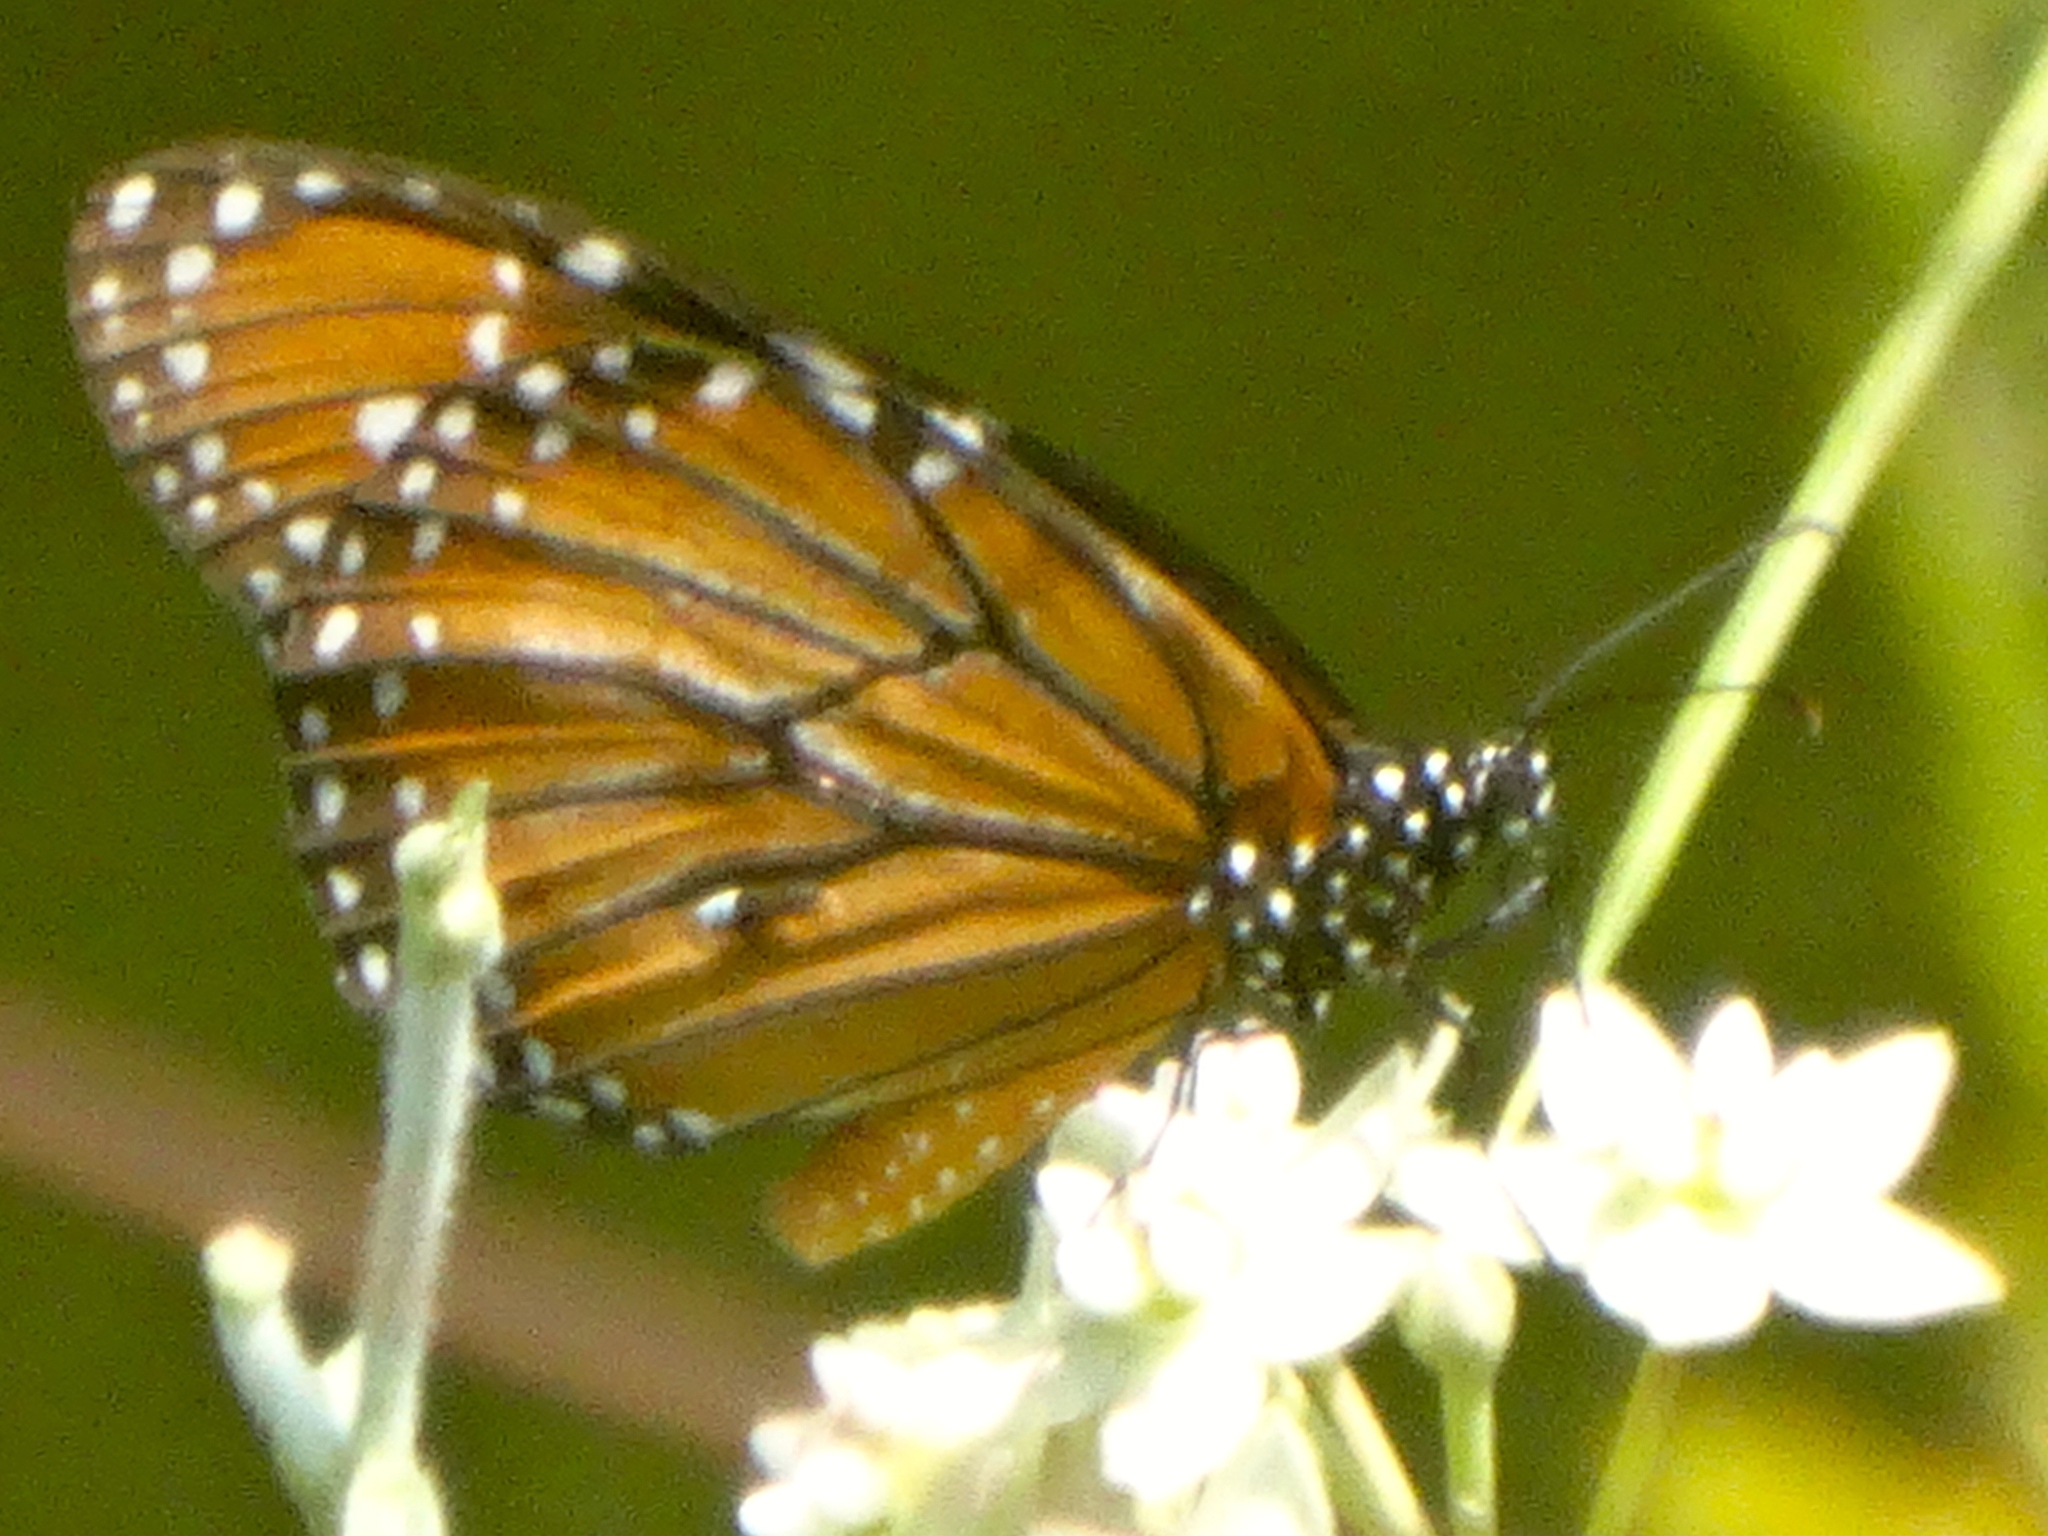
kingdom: Animalia
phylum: Arthropoda
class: Insecta
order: Lepidoptera
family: Nymphalidae
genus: Danaus
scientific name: Danaus eresimus
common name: Soldier
